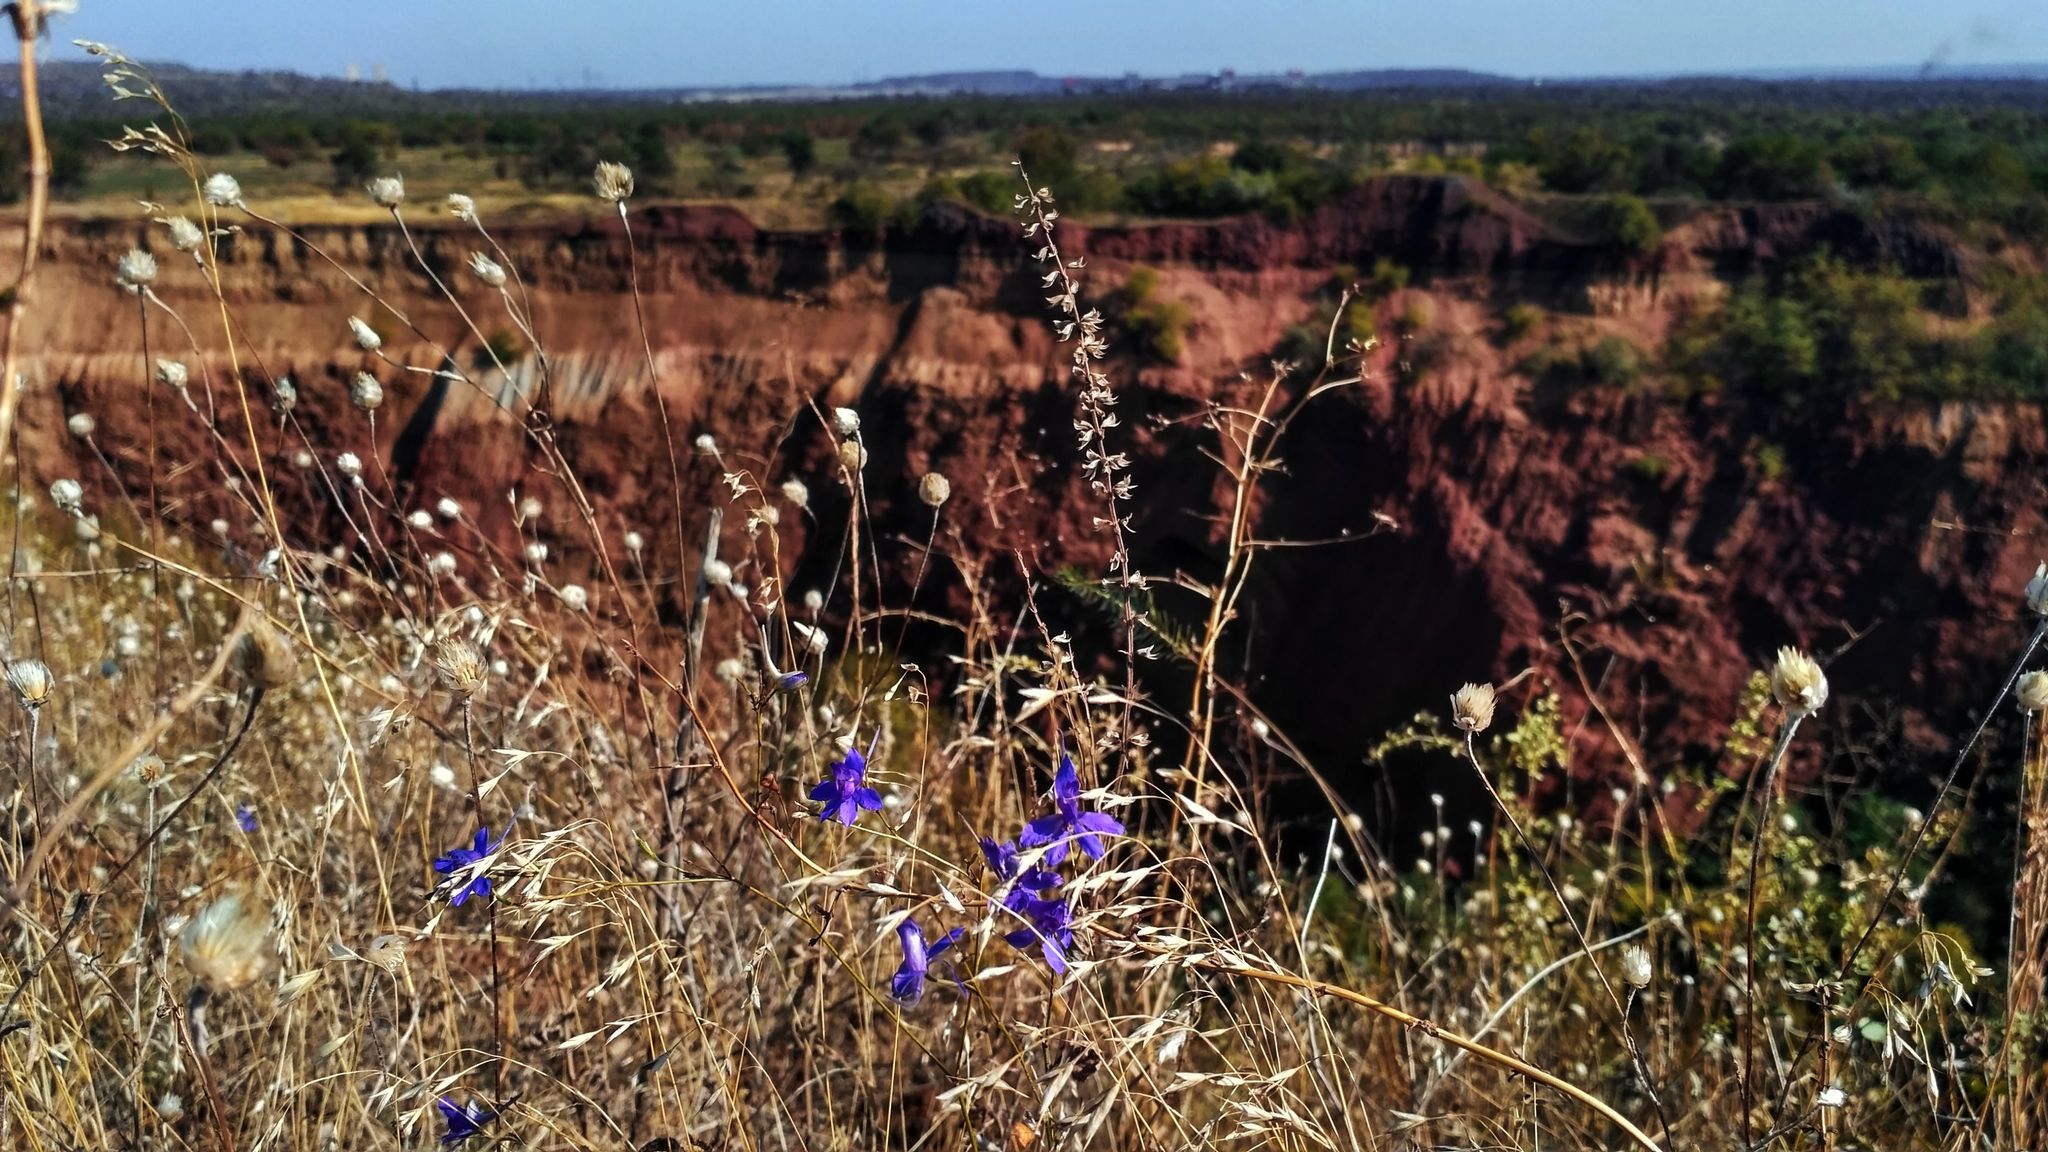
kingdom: Plantae
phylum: Tracheophyta
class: Magnoliopsida
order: Ranunculales
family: Ranunculaceae
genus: Delphinium
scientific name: Delphinium consolida
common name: Branching larkspur
